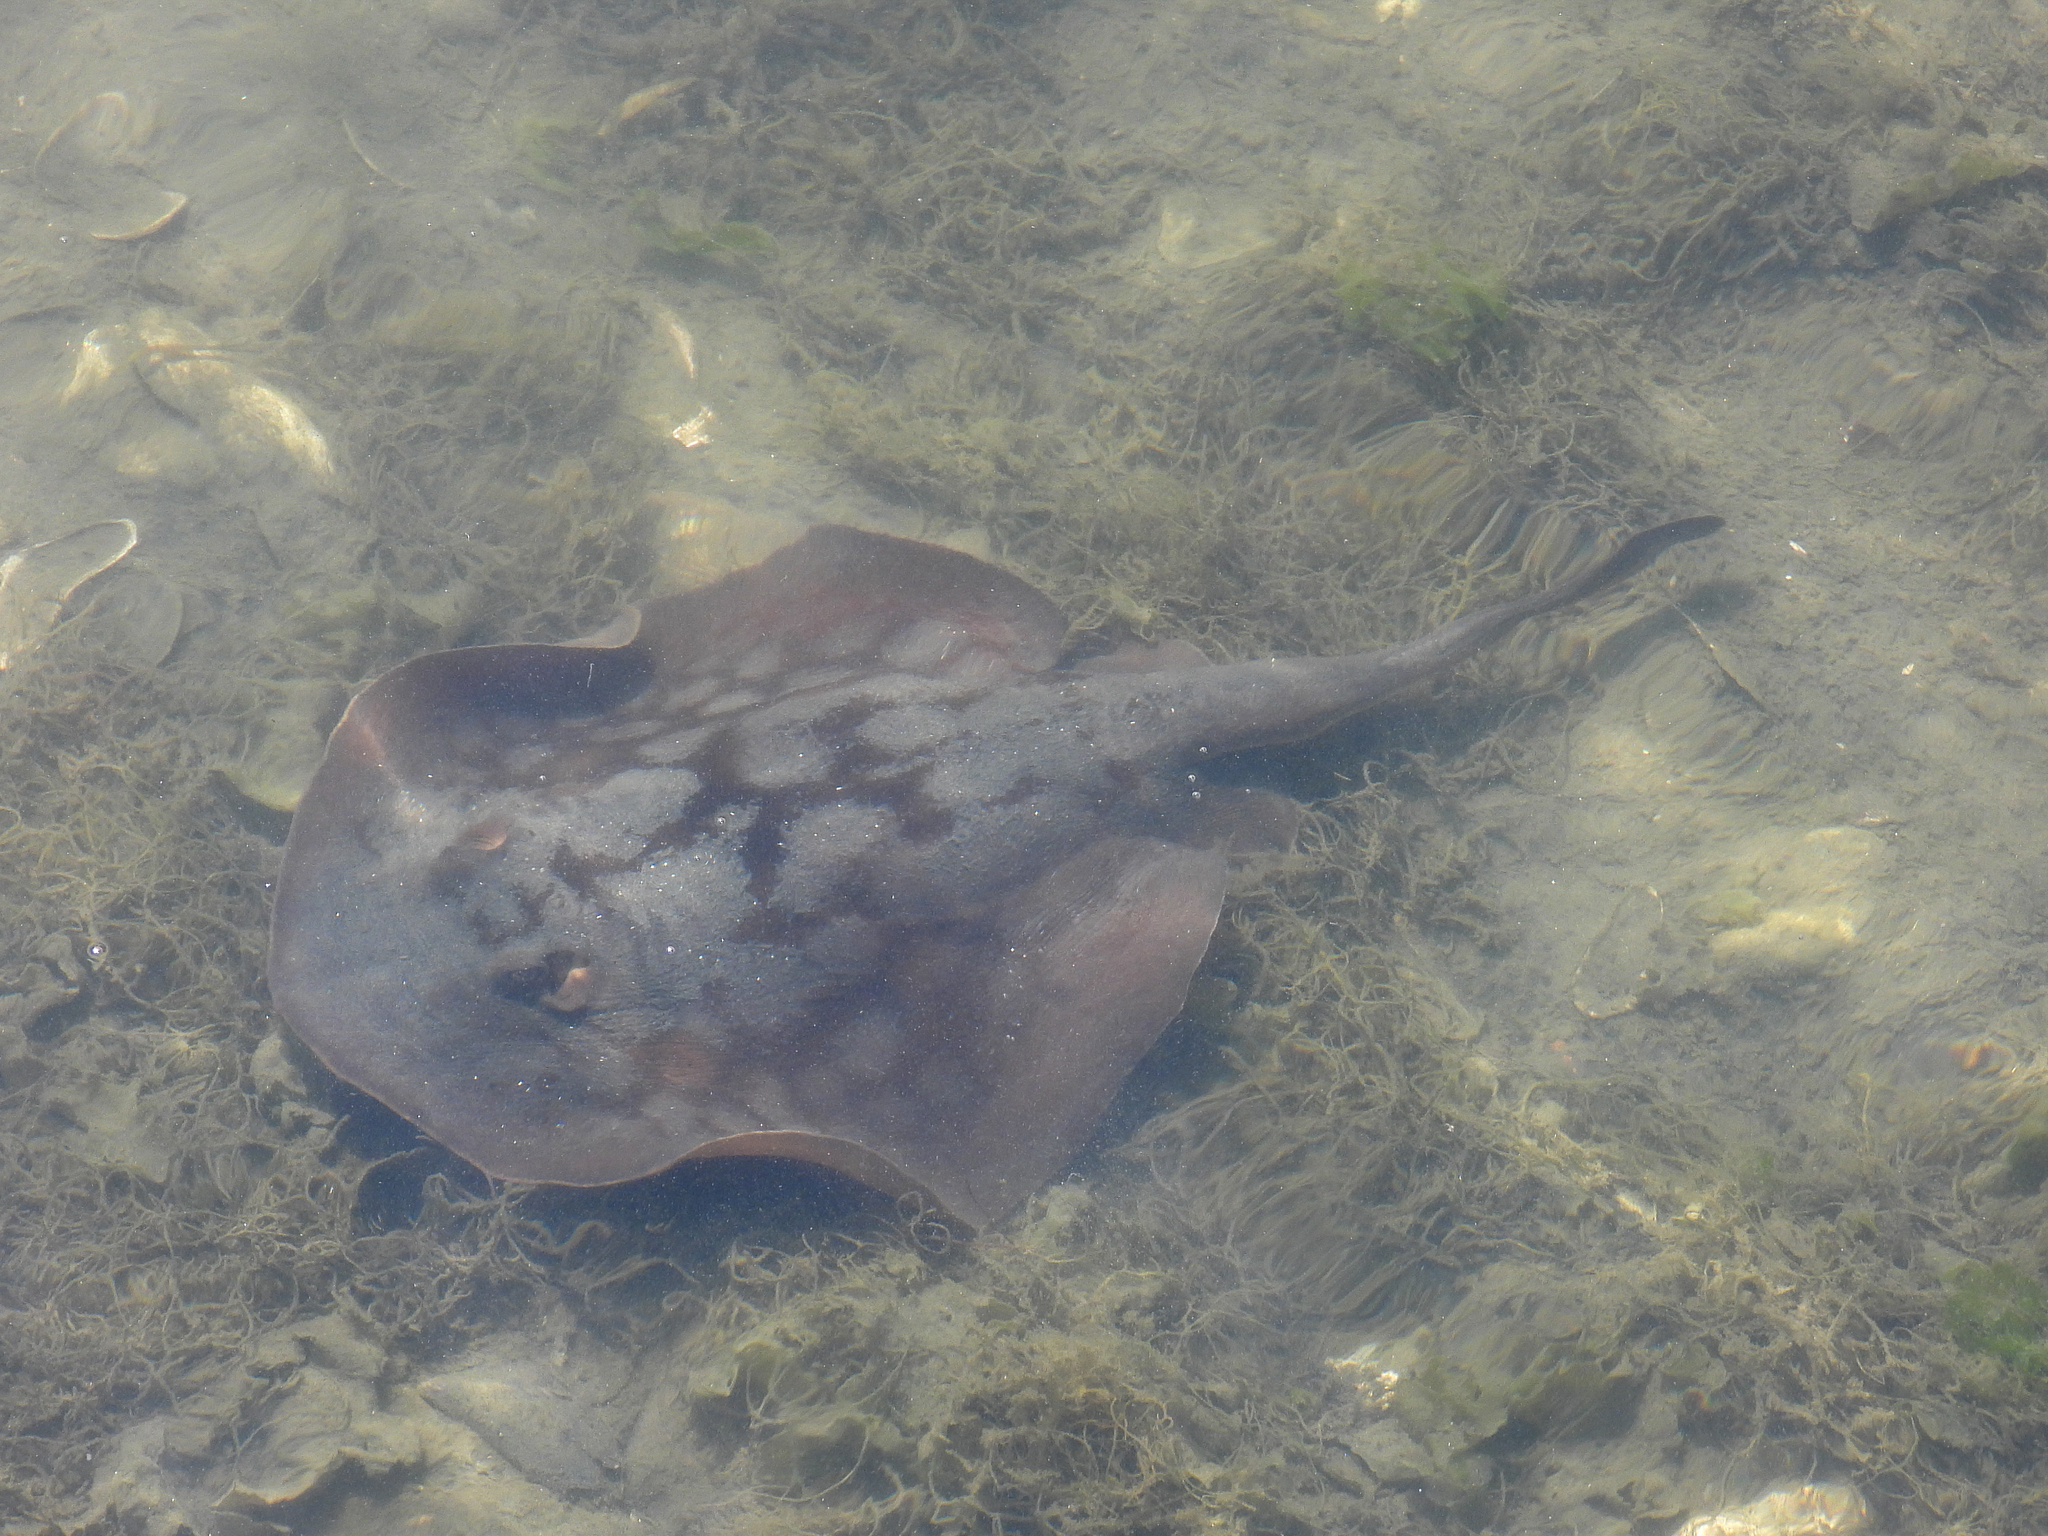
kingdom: Animalia
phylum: Chordata
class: Elasmobranchii
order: Myliobatiformes
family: Urolophidae
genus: Urolophus
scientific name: Urolophus halleri
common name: Round stingray
